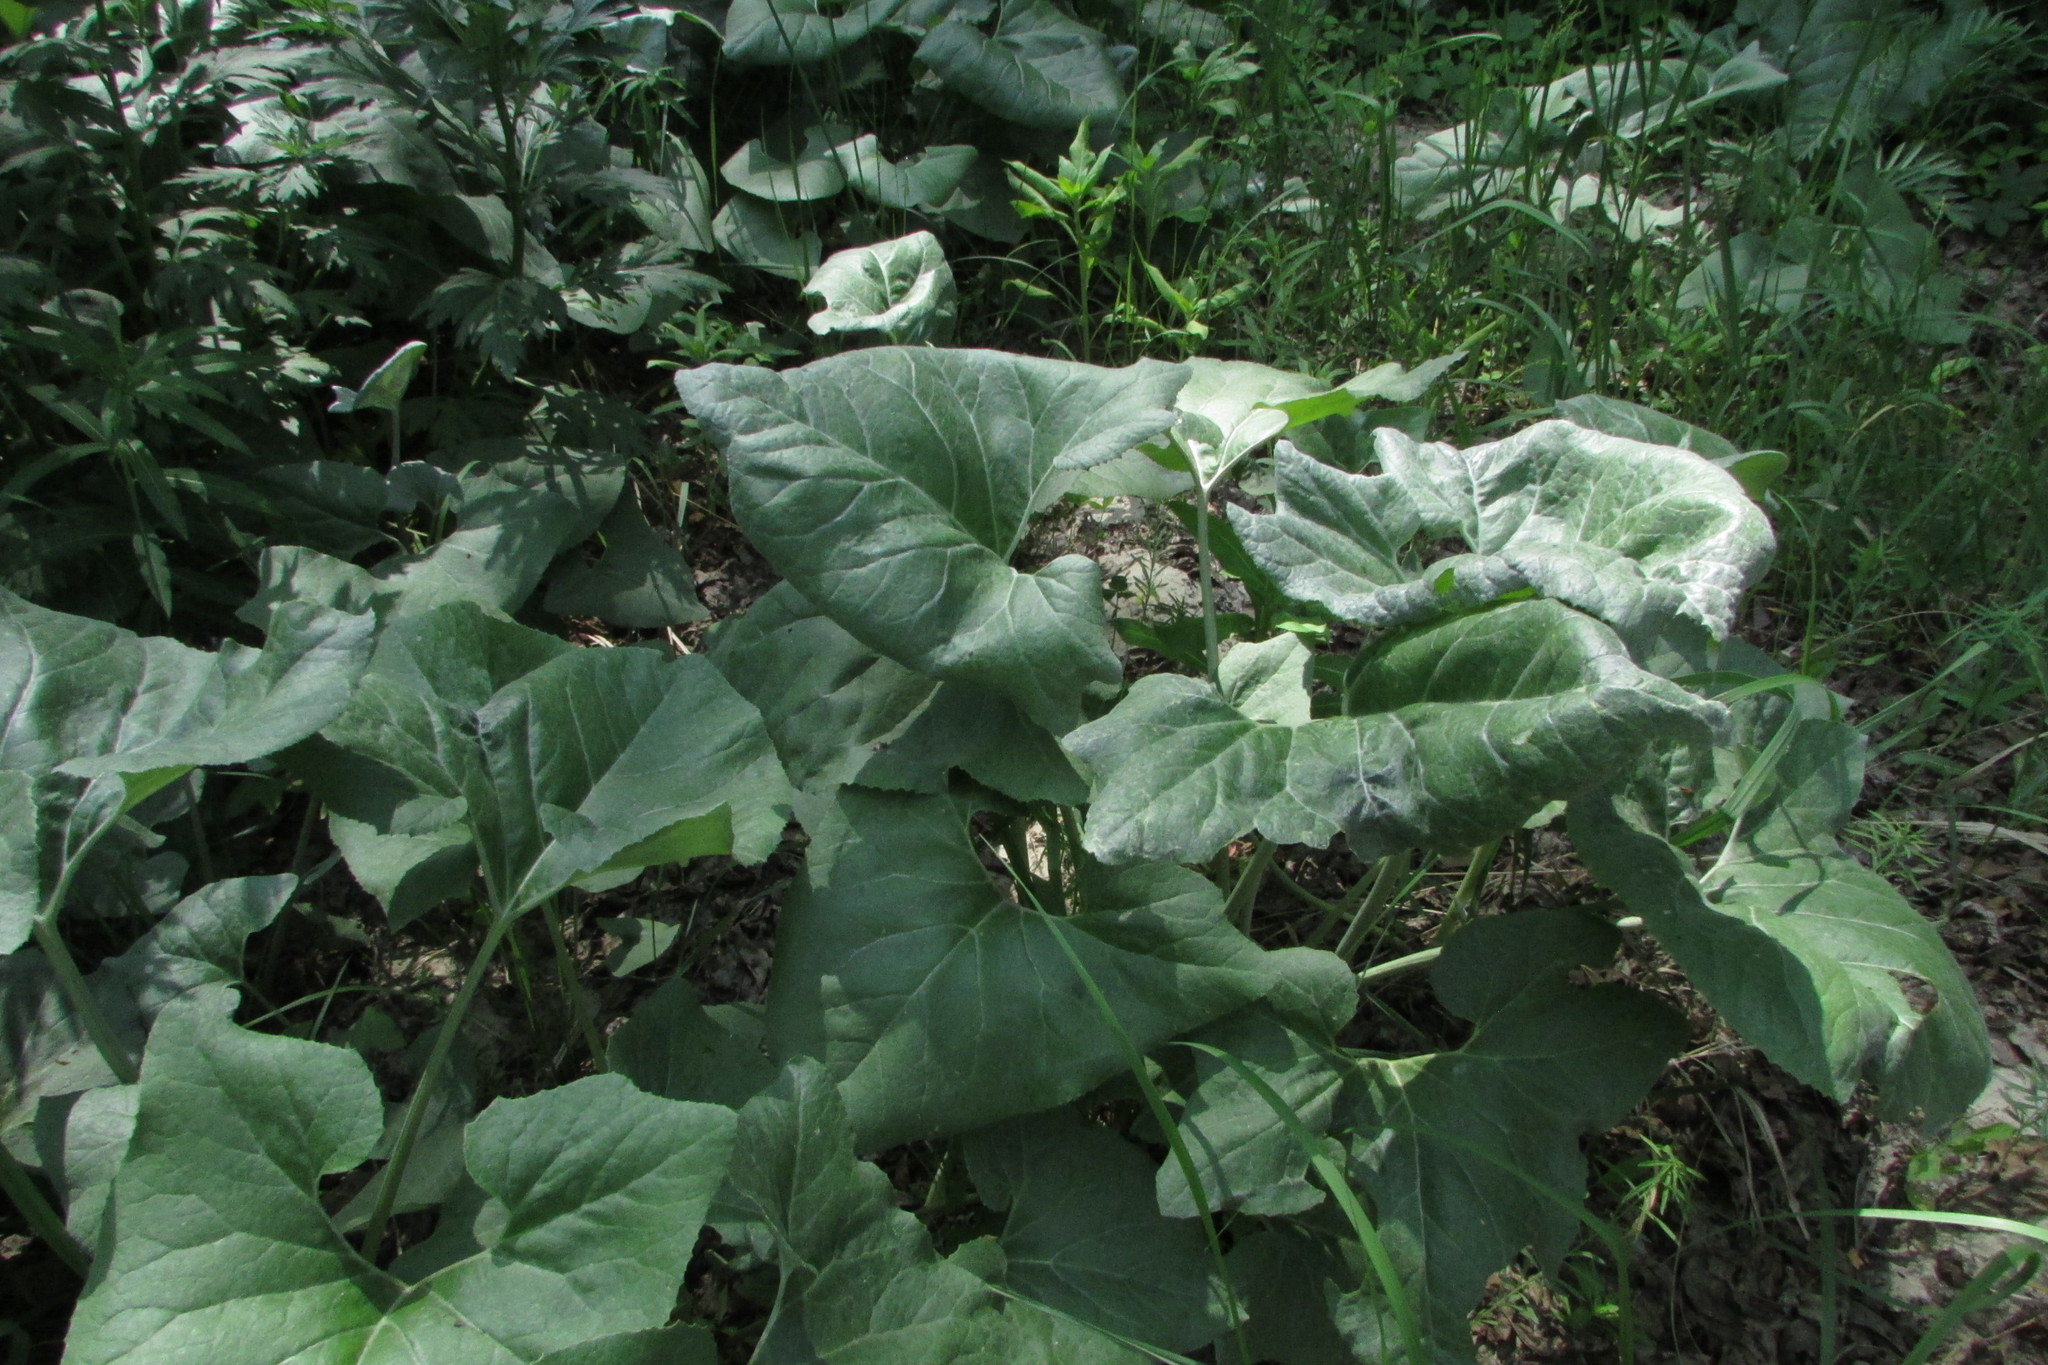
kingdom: Plantae
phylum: Tracheophyta
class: Magnoliopsida
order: Asterales
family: Asteraceae
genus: Petasites
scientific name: Petasites spurius
